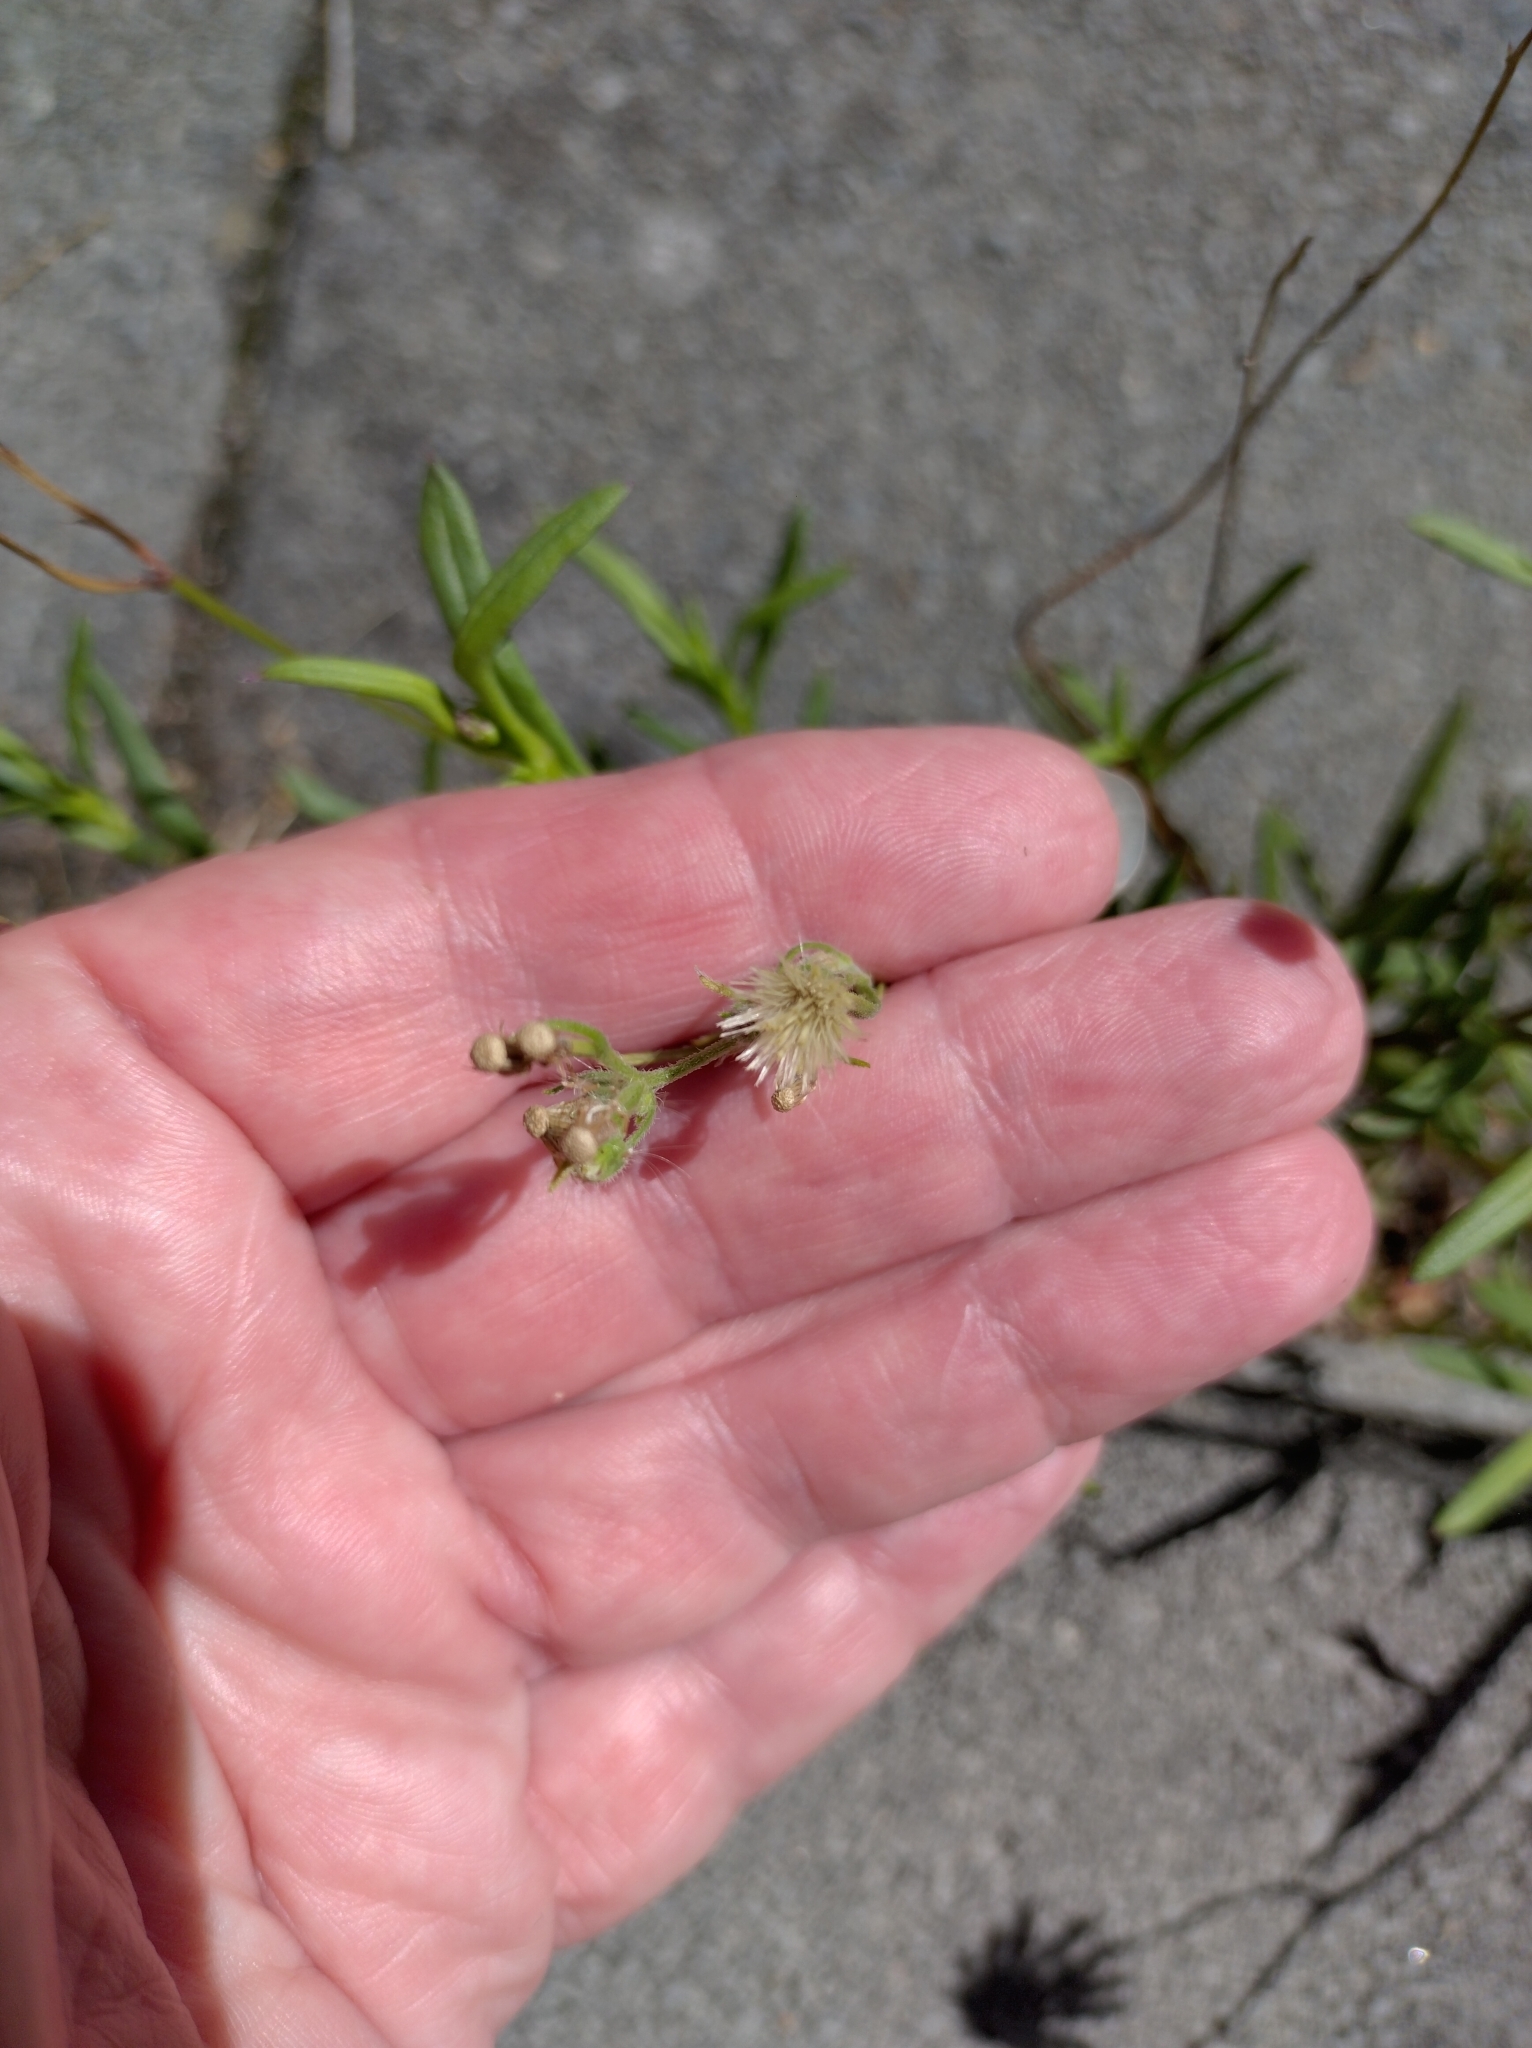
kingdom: Plantae
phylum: Tracheophyta
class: Magnoliopsida
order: Asterales
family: Asteraceae
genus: Senecio
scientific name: Senecio skirrhodon
